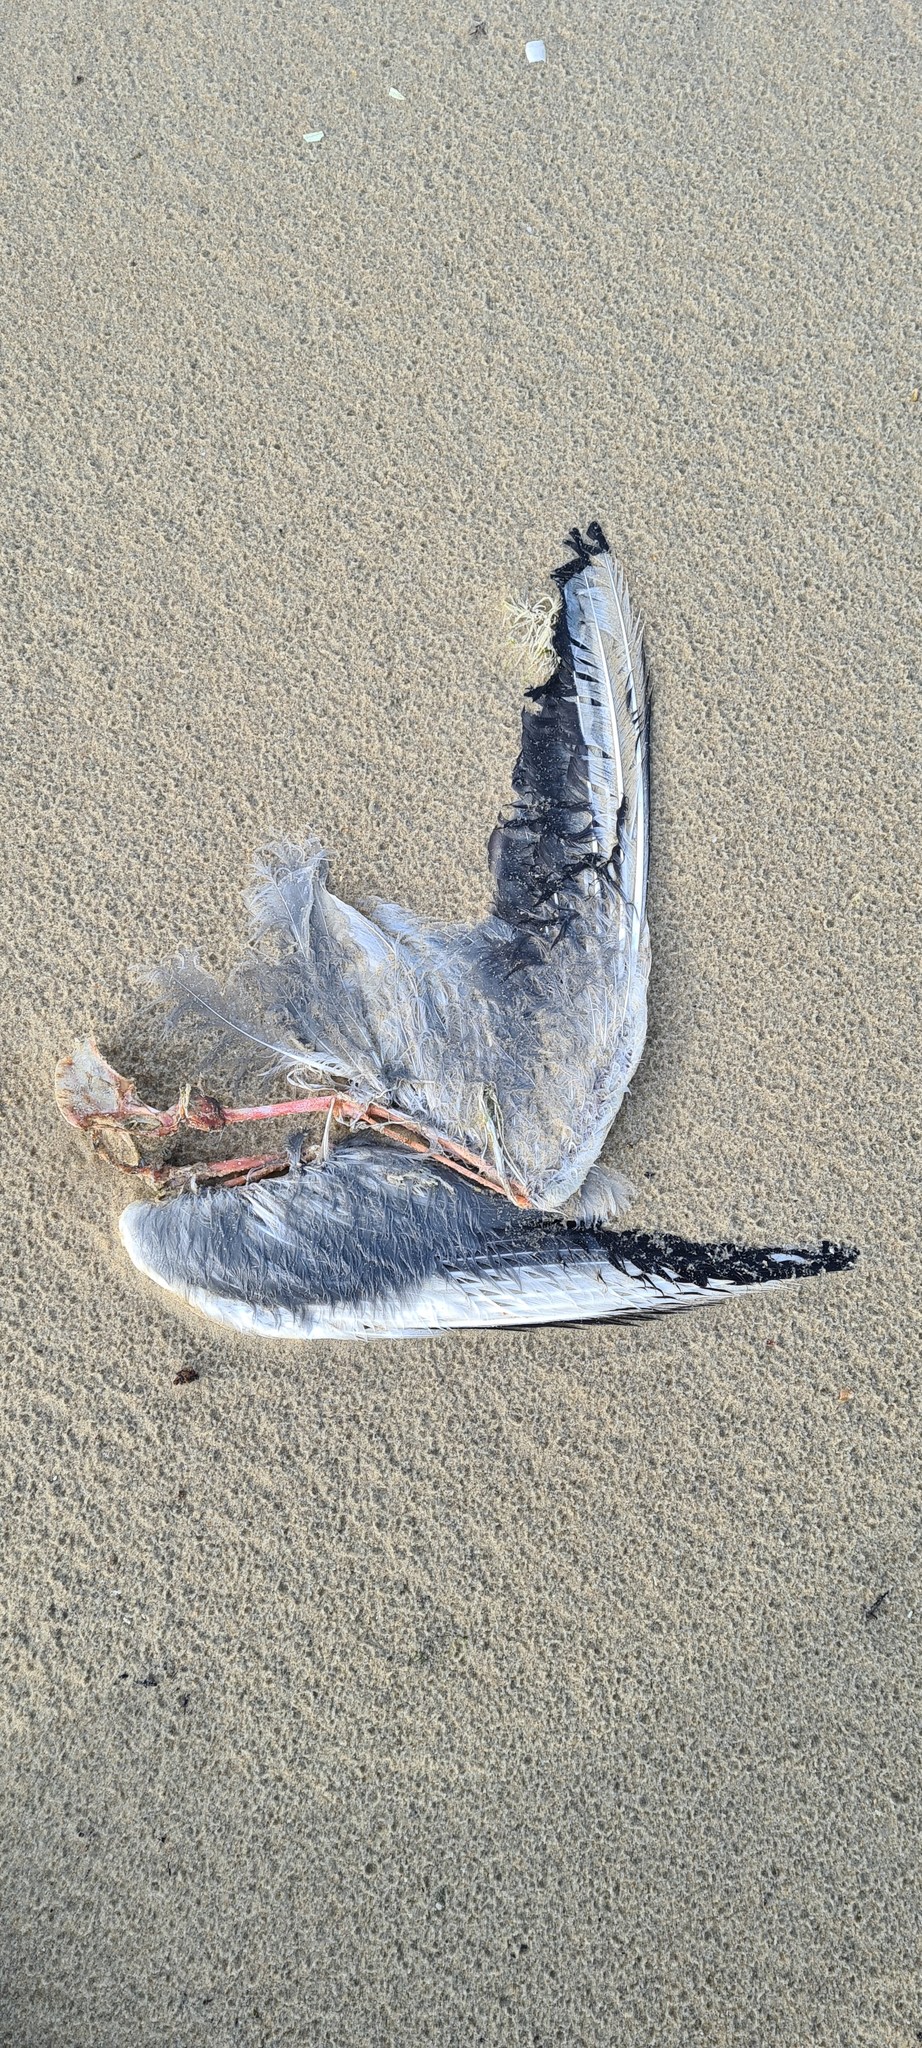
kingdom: Animalia
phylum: Chordata
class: Aves
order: Charadriiformes
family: Laridae
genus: Chroicocephalus
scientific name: Chroicocephalus ridibundus
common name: Black-headed gull
